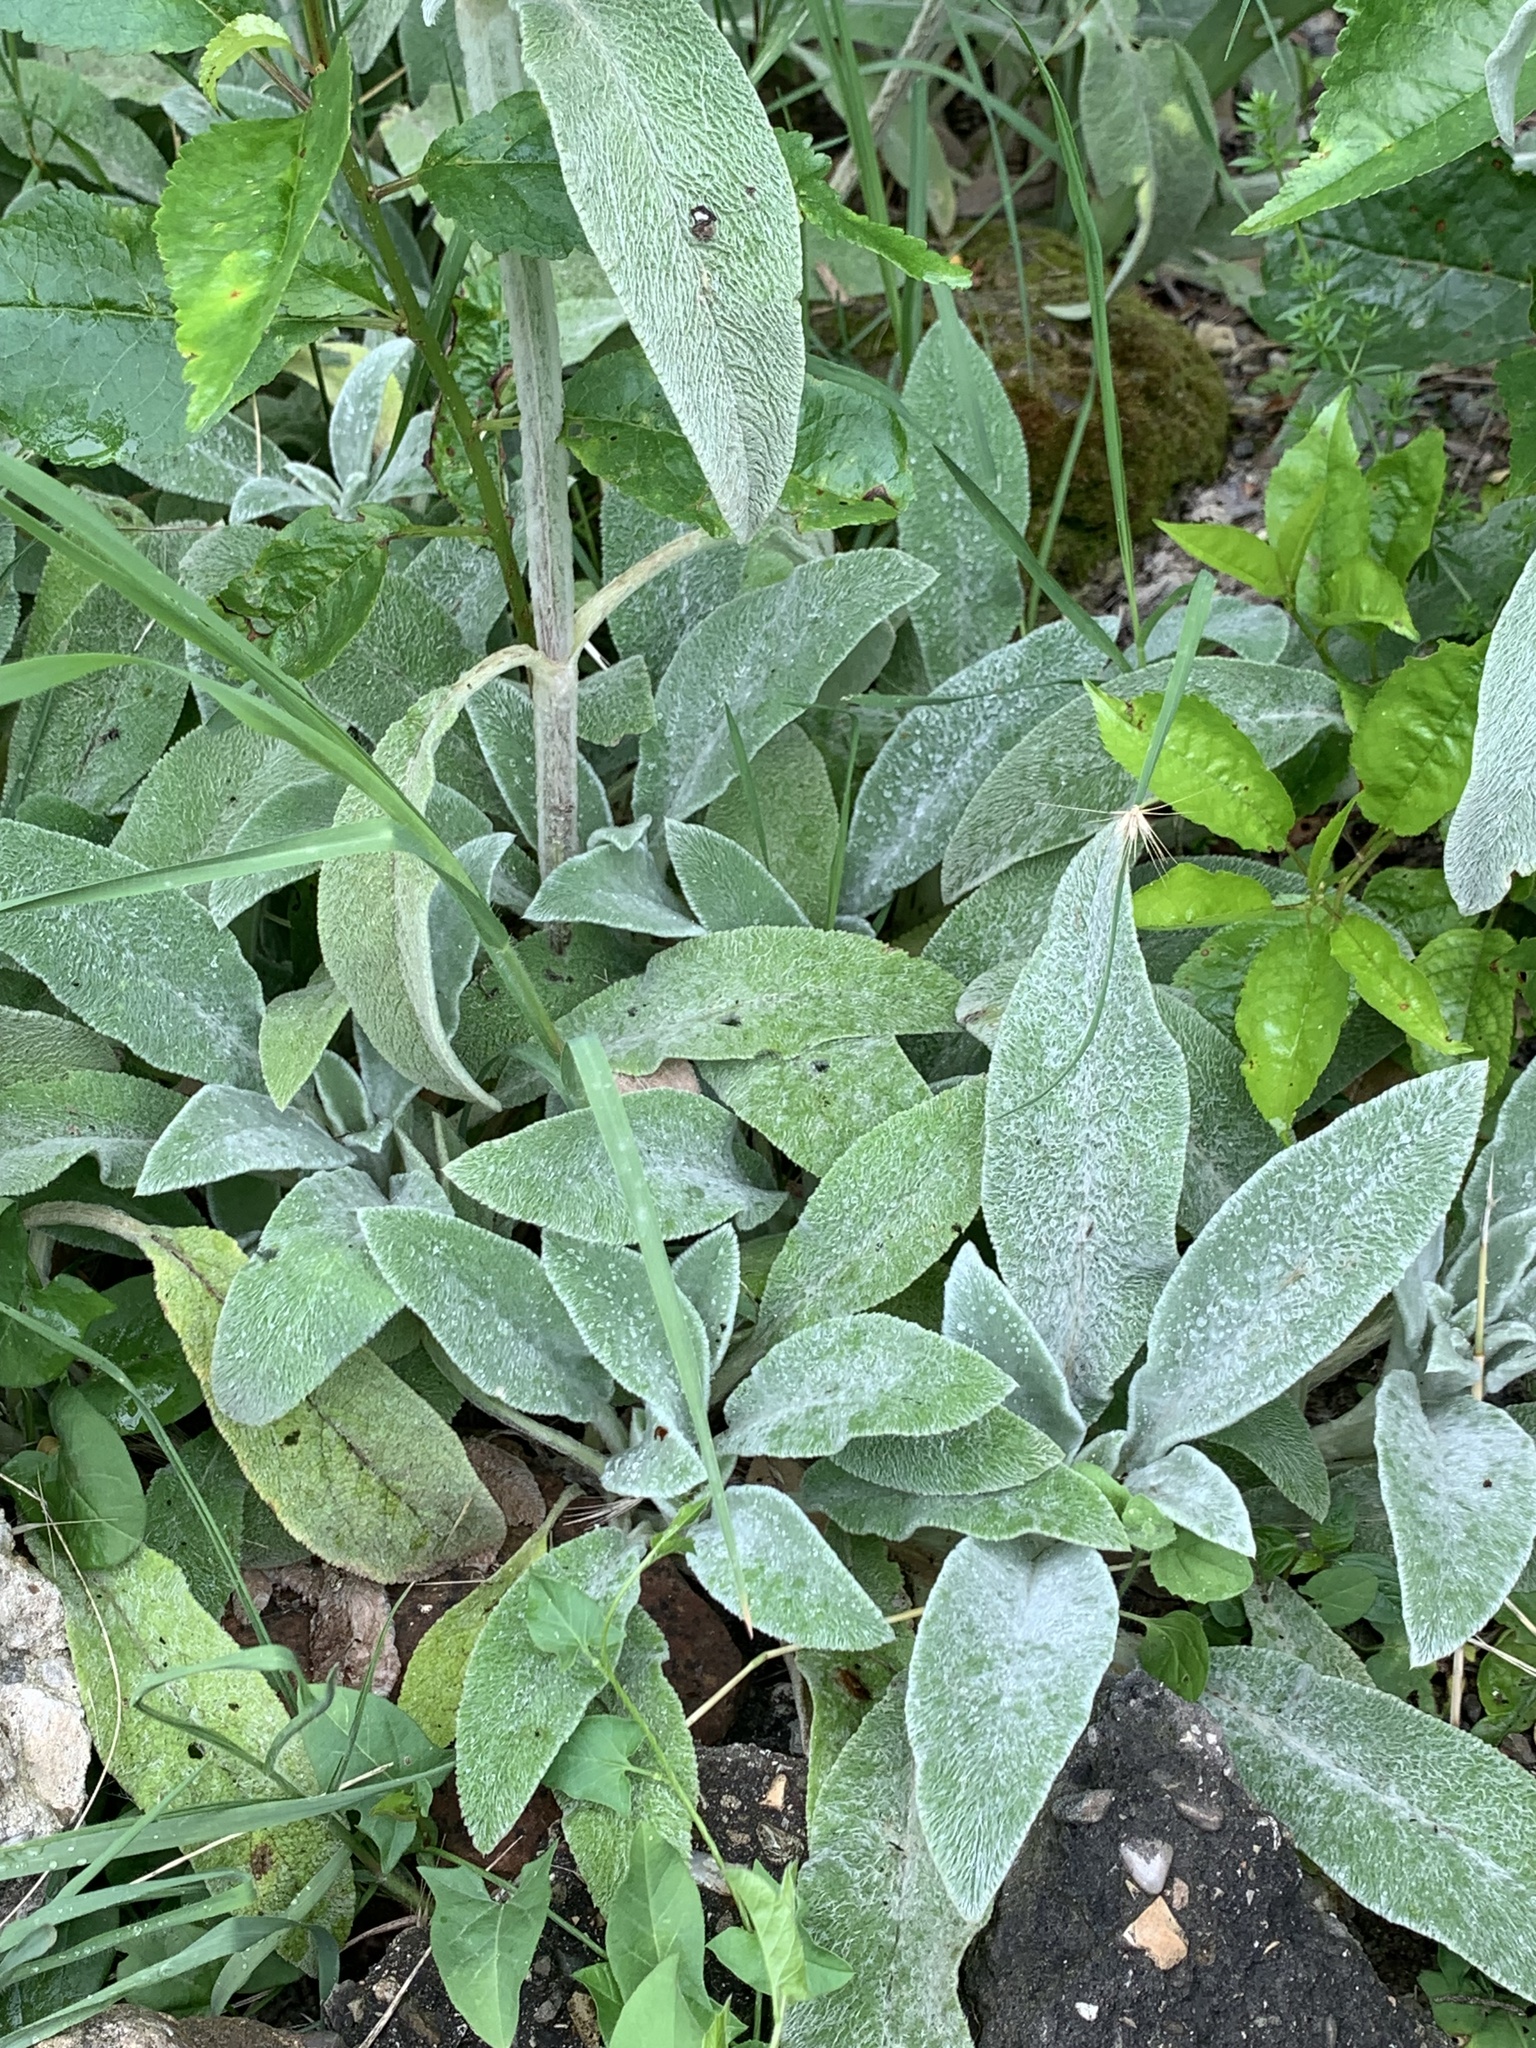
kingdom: Plantae
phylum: Tracheophyta
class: Magnoliopsida
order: Lamiales
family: Lamiaceae
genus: Stachys
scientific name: Stachys byzantina
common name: Lamb's-ear
